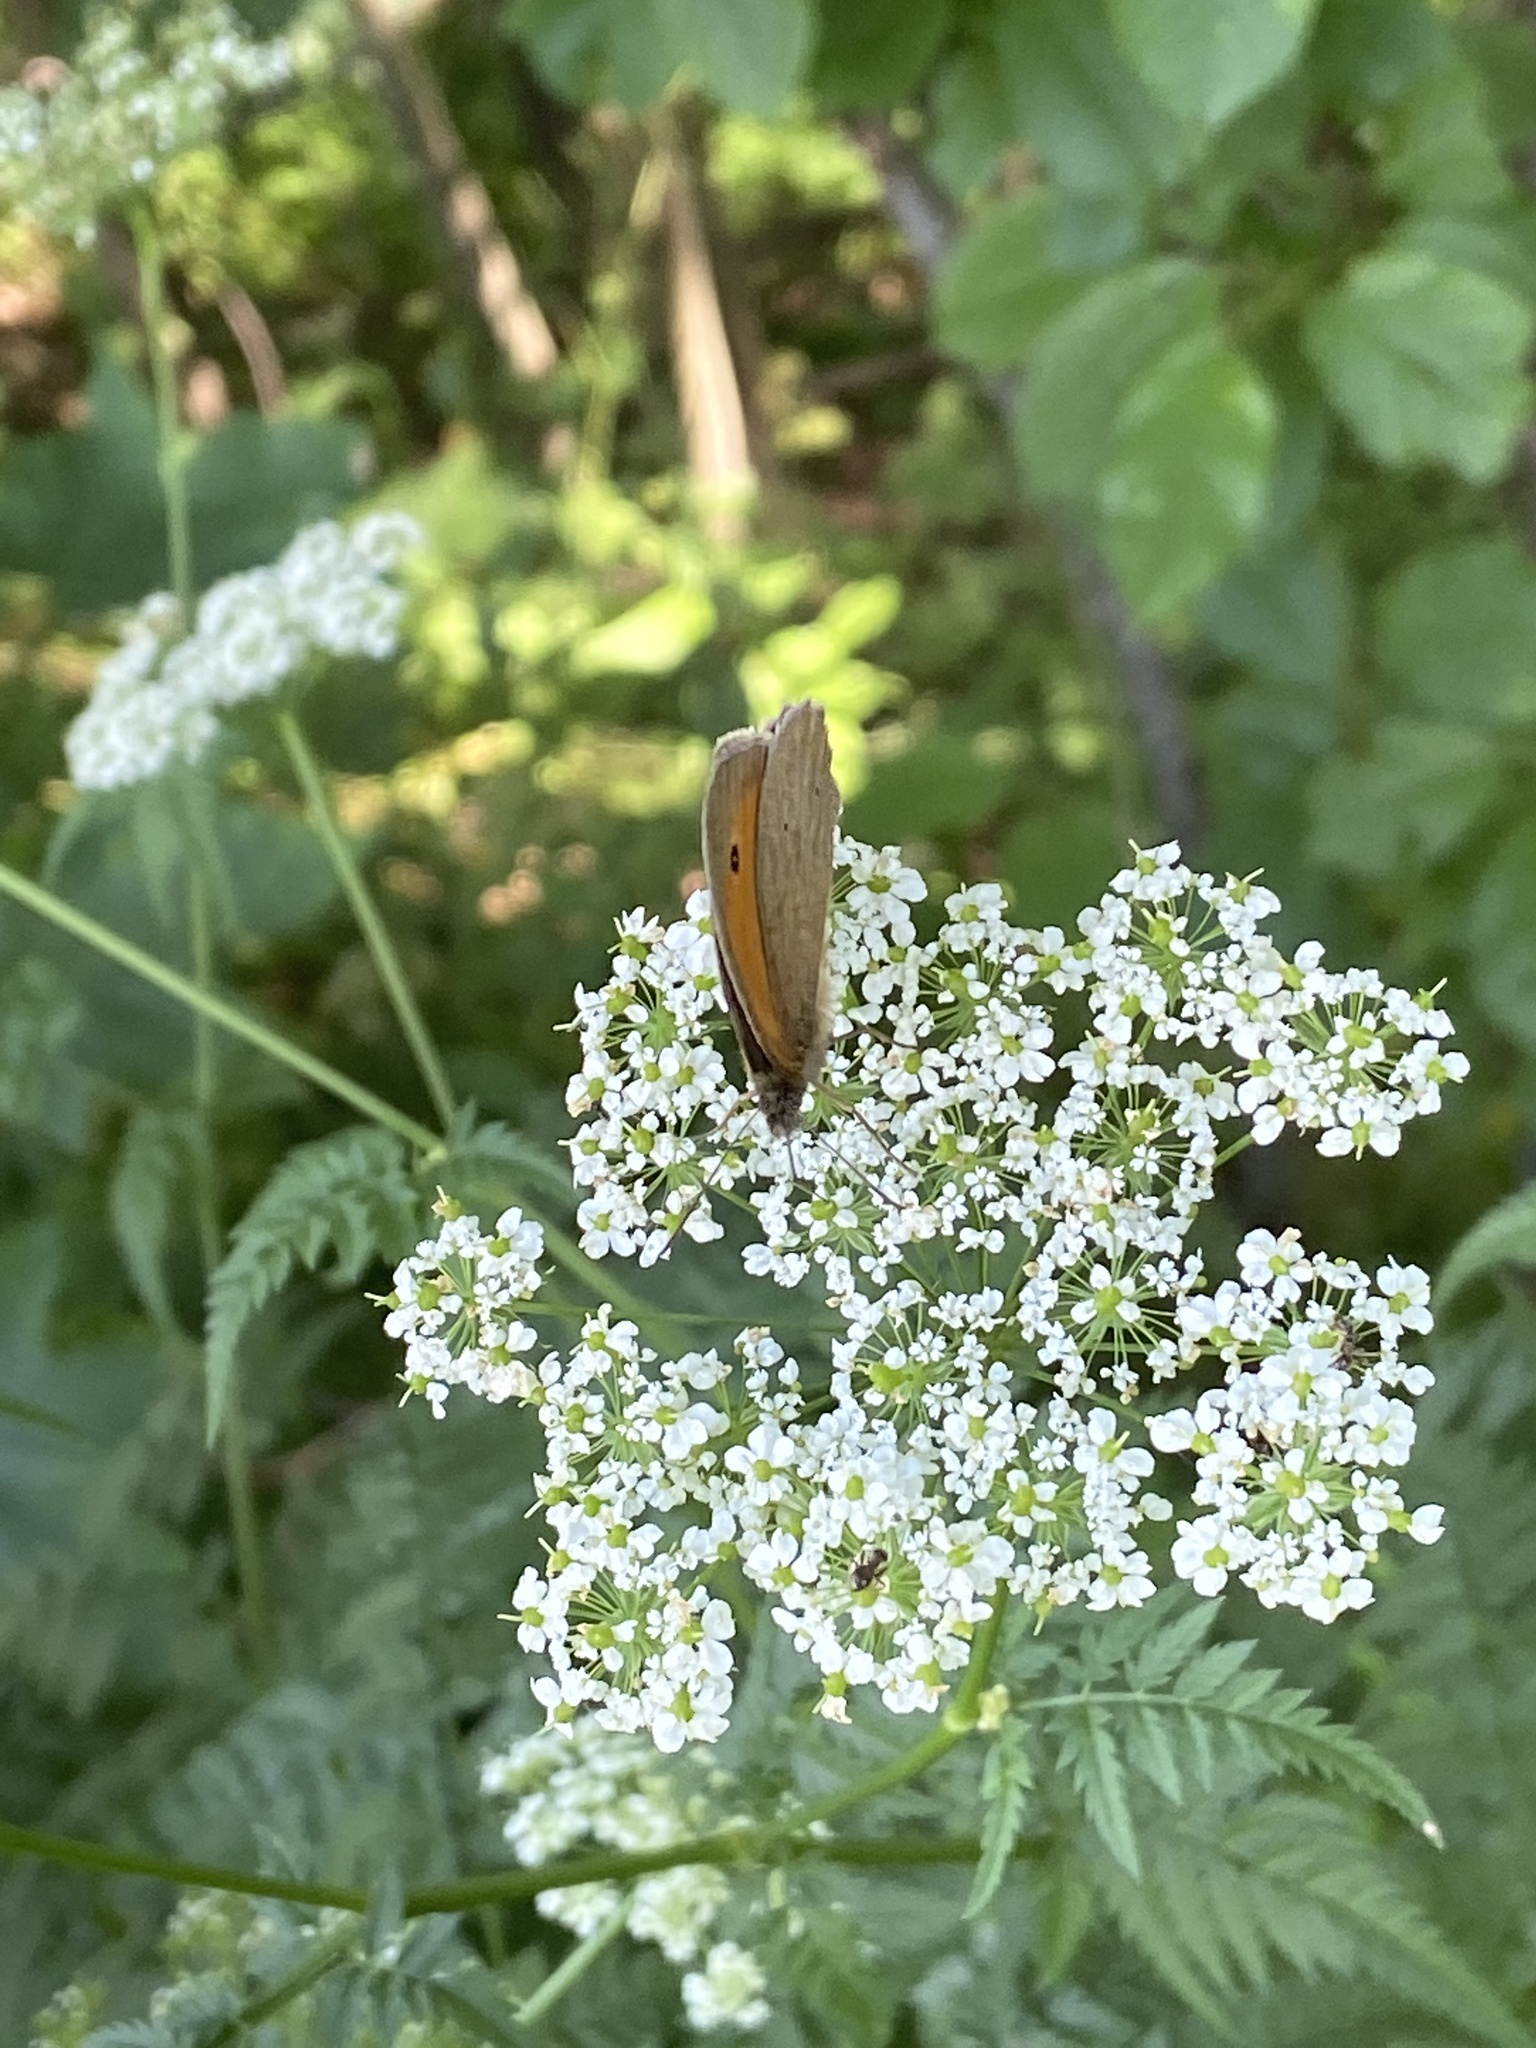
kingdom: Animalia
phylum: Arthropoda
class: Insecta
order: Lepidoptera
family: Nymphalidae
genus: Maniola
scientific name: Maniola jurtina
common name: Meadow brown
